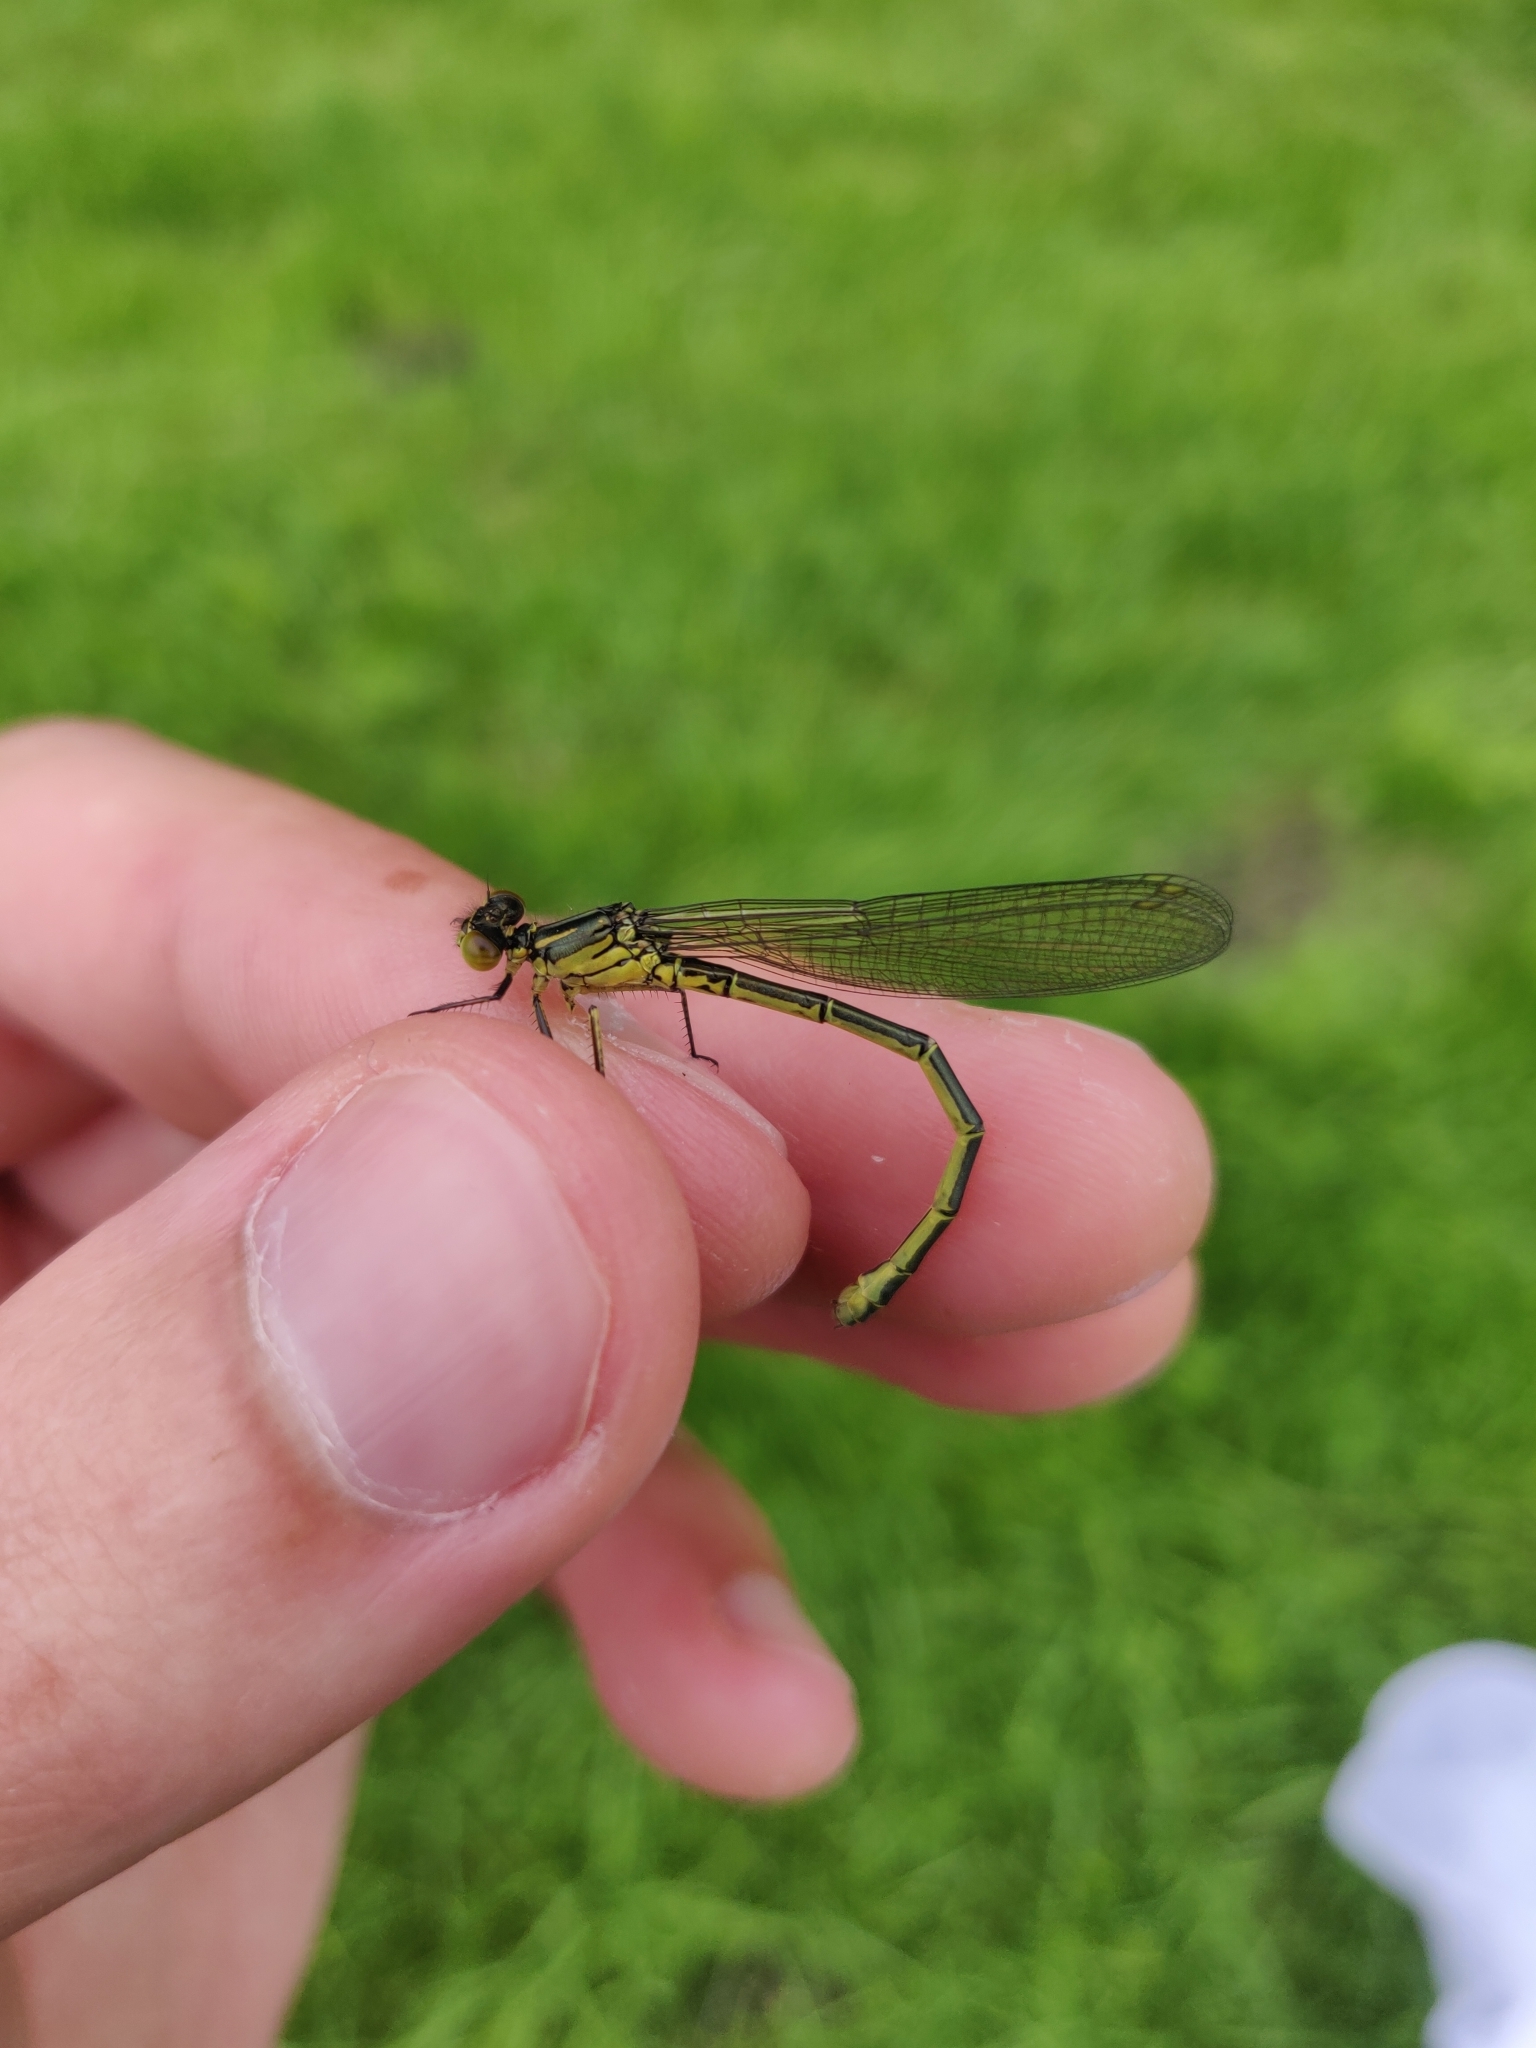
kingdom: Animalia
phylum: Arthropoda
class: Insecta
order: Odonata
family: Coenagrionidae
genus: Erythromma
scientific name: Erythromma najas
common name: Red-eyed damselfly
